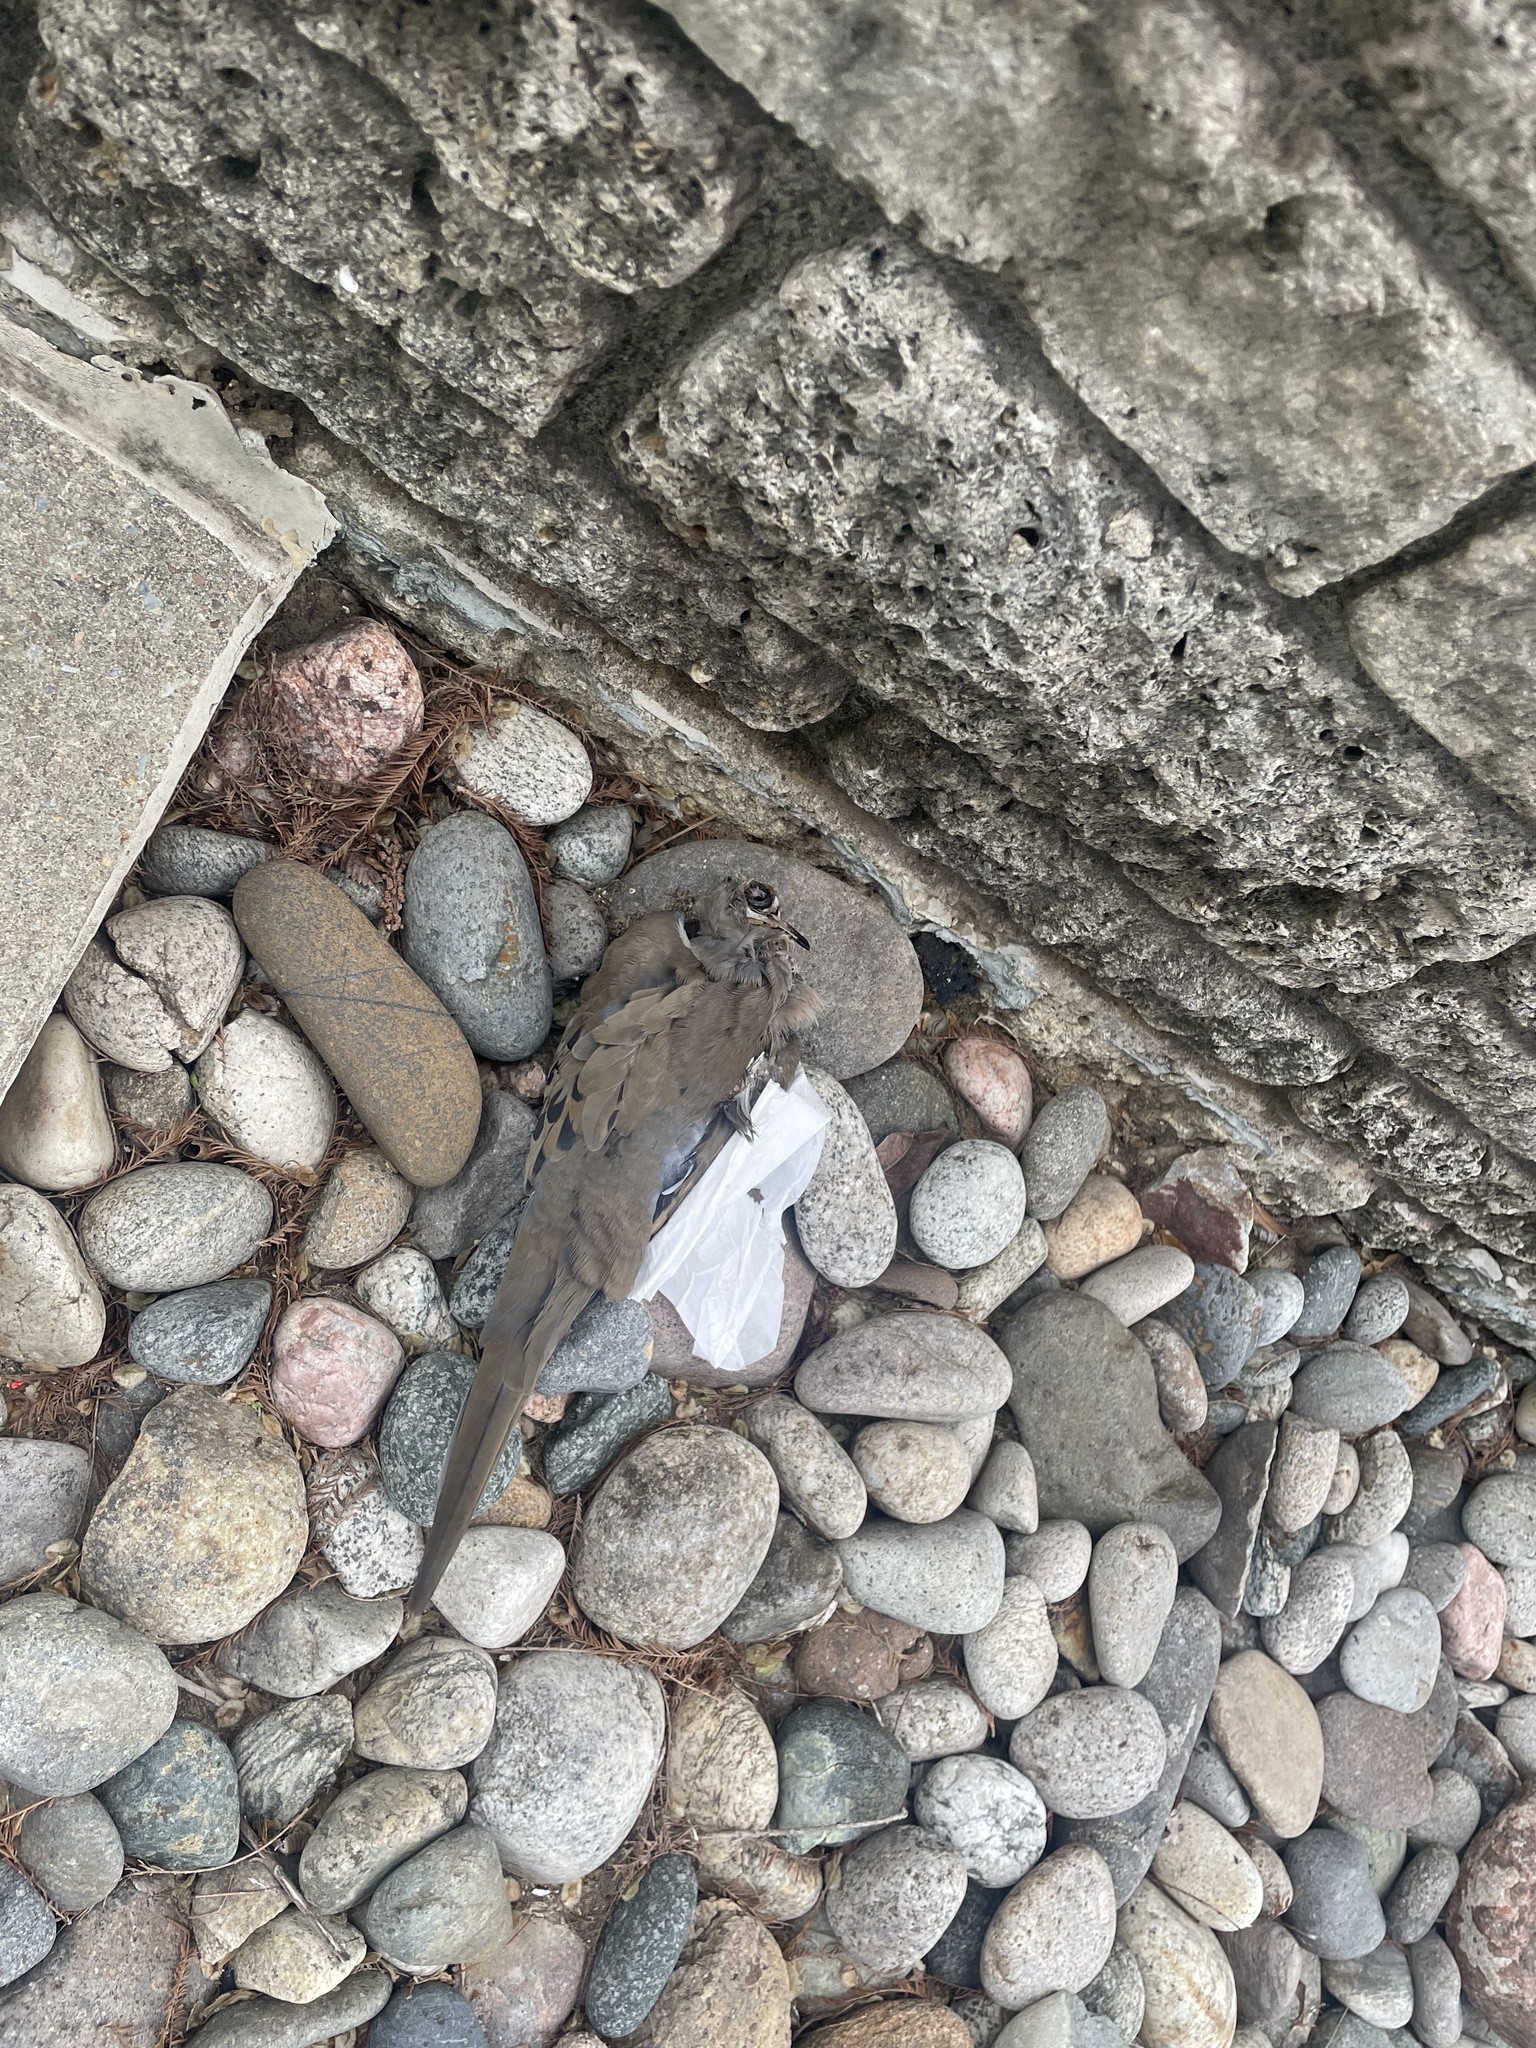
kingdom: Animalia
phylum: Chordata
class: Aves
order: Columbiformes
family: Columbidae
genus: Zenaida
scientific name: Zenaida macroura
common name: Mourning dove
